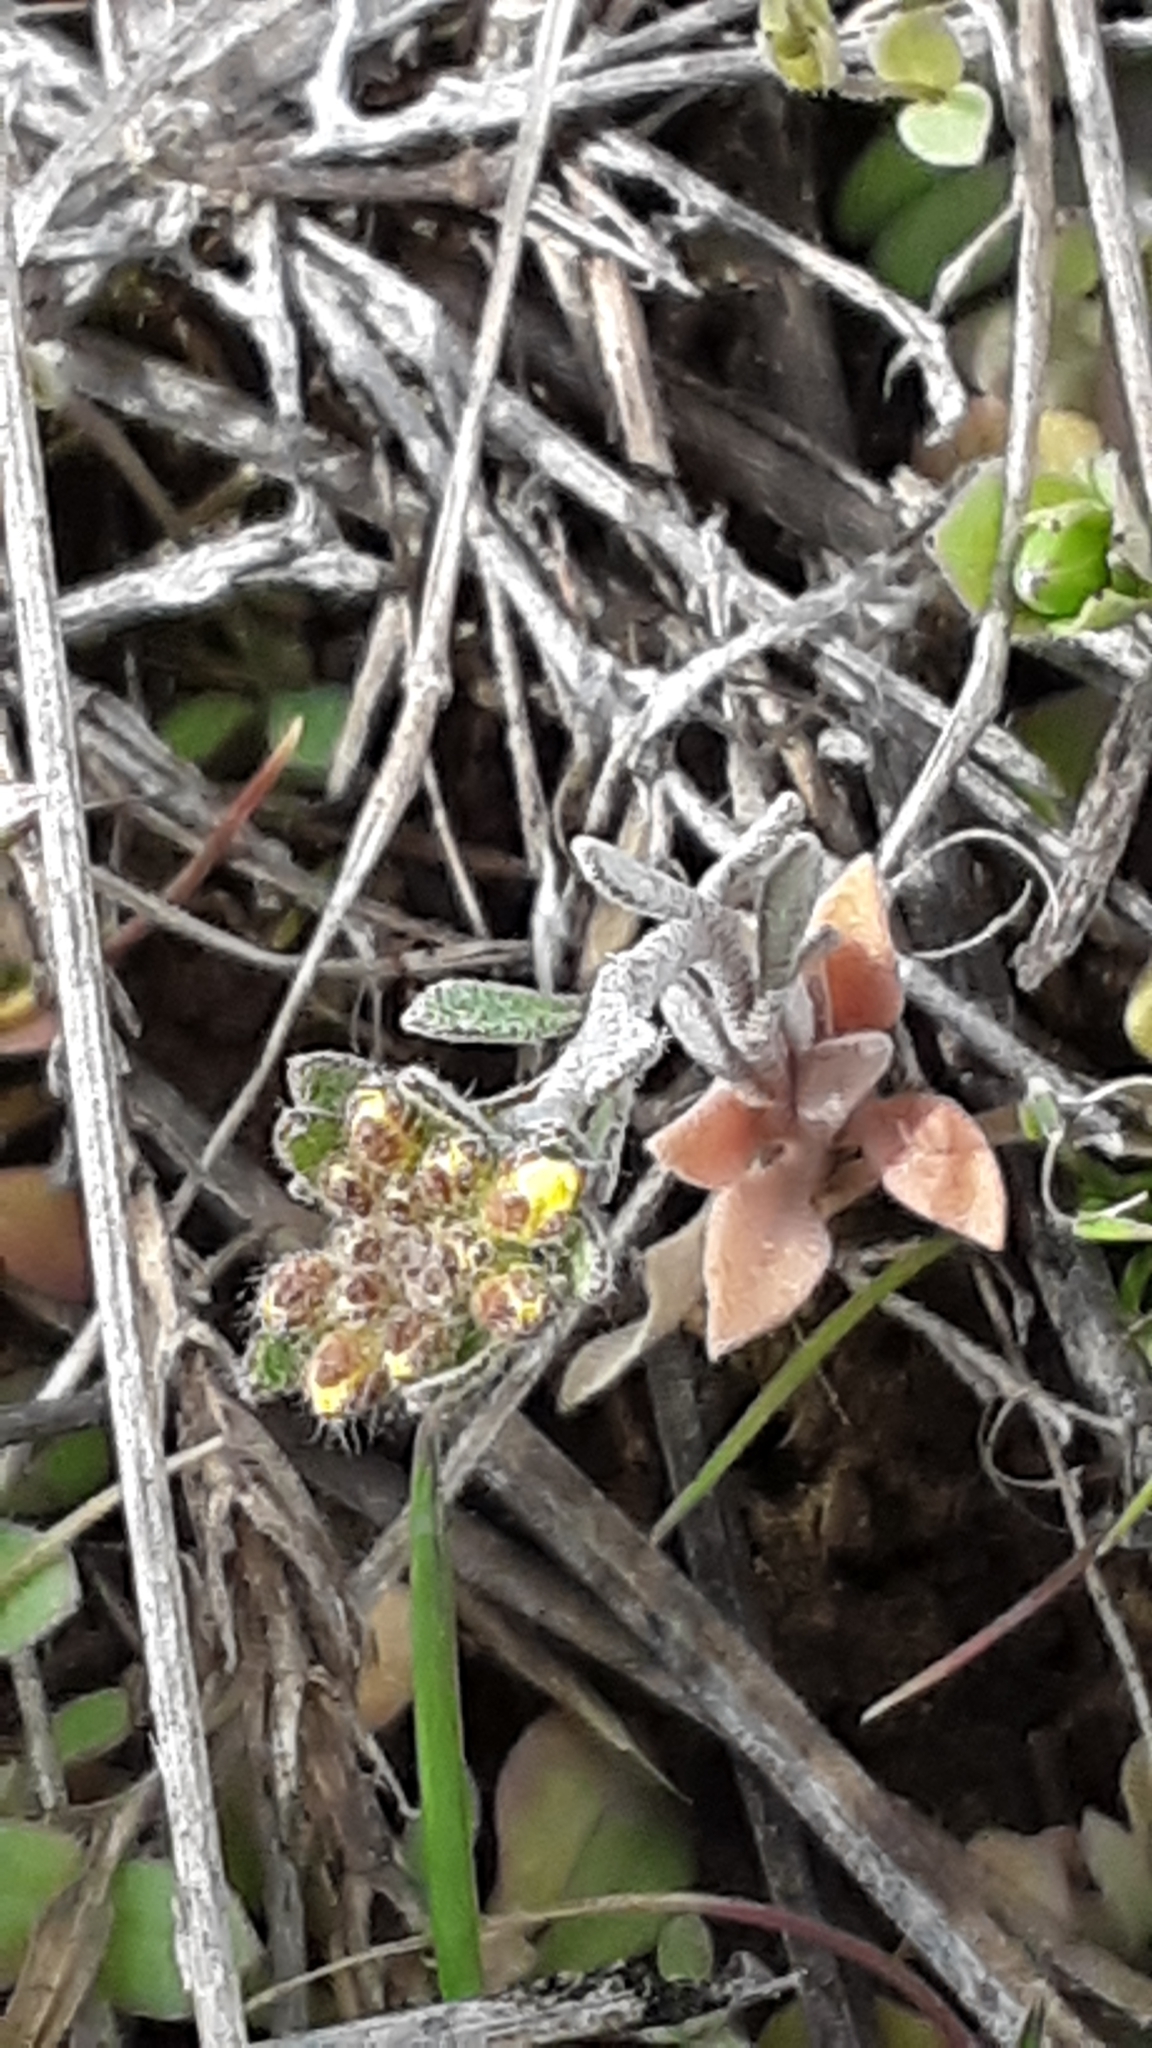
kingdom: Plantae
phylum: Tracheophyta
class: Magnoliopsida
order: Brassicales
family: Brassicaceae
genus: Alyssum
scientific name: Alyssum turkestanicum
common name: Desert alyssum
